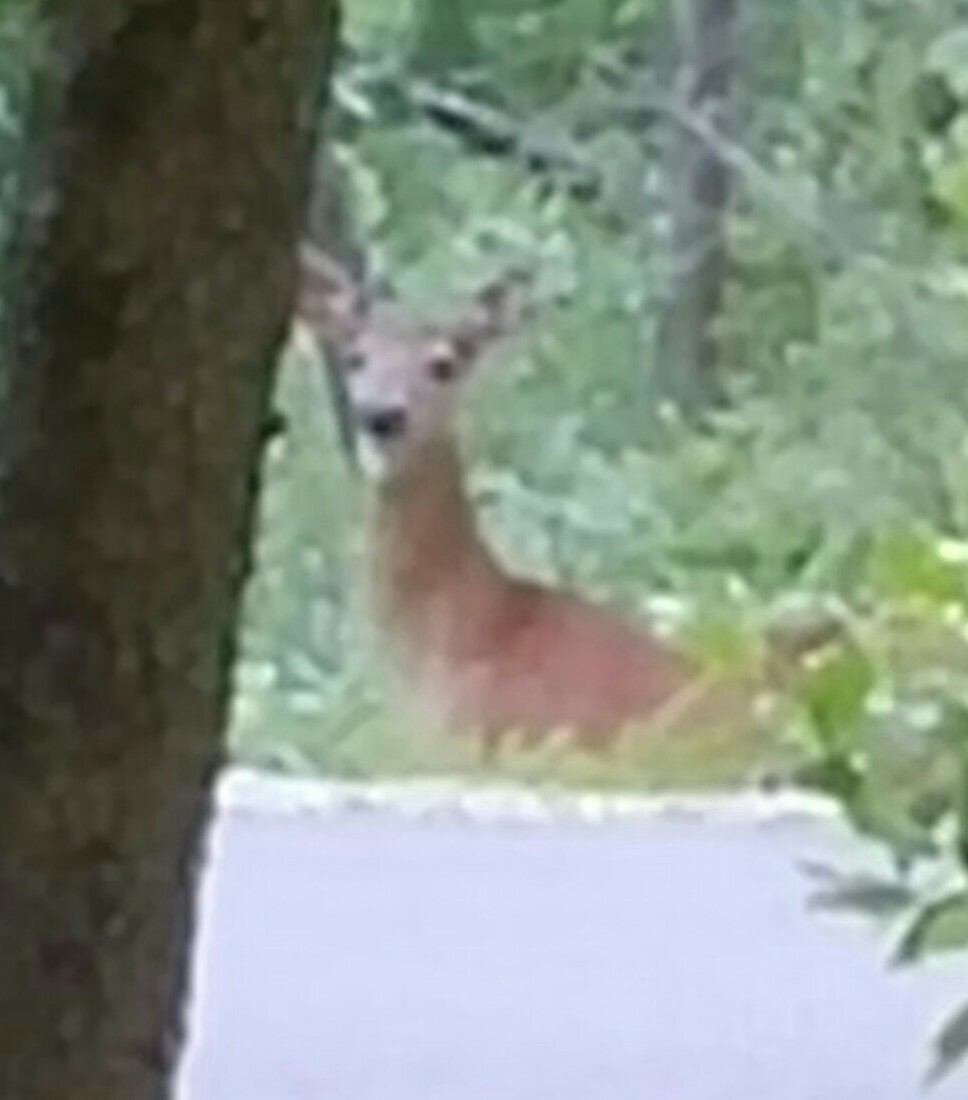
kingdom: Animalia
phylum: Chordata
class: Mammalia
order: Artiodactyla
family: Cervidae
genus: Odocoileus
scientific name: Odocoileus virginianus
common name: White-tailed deer
